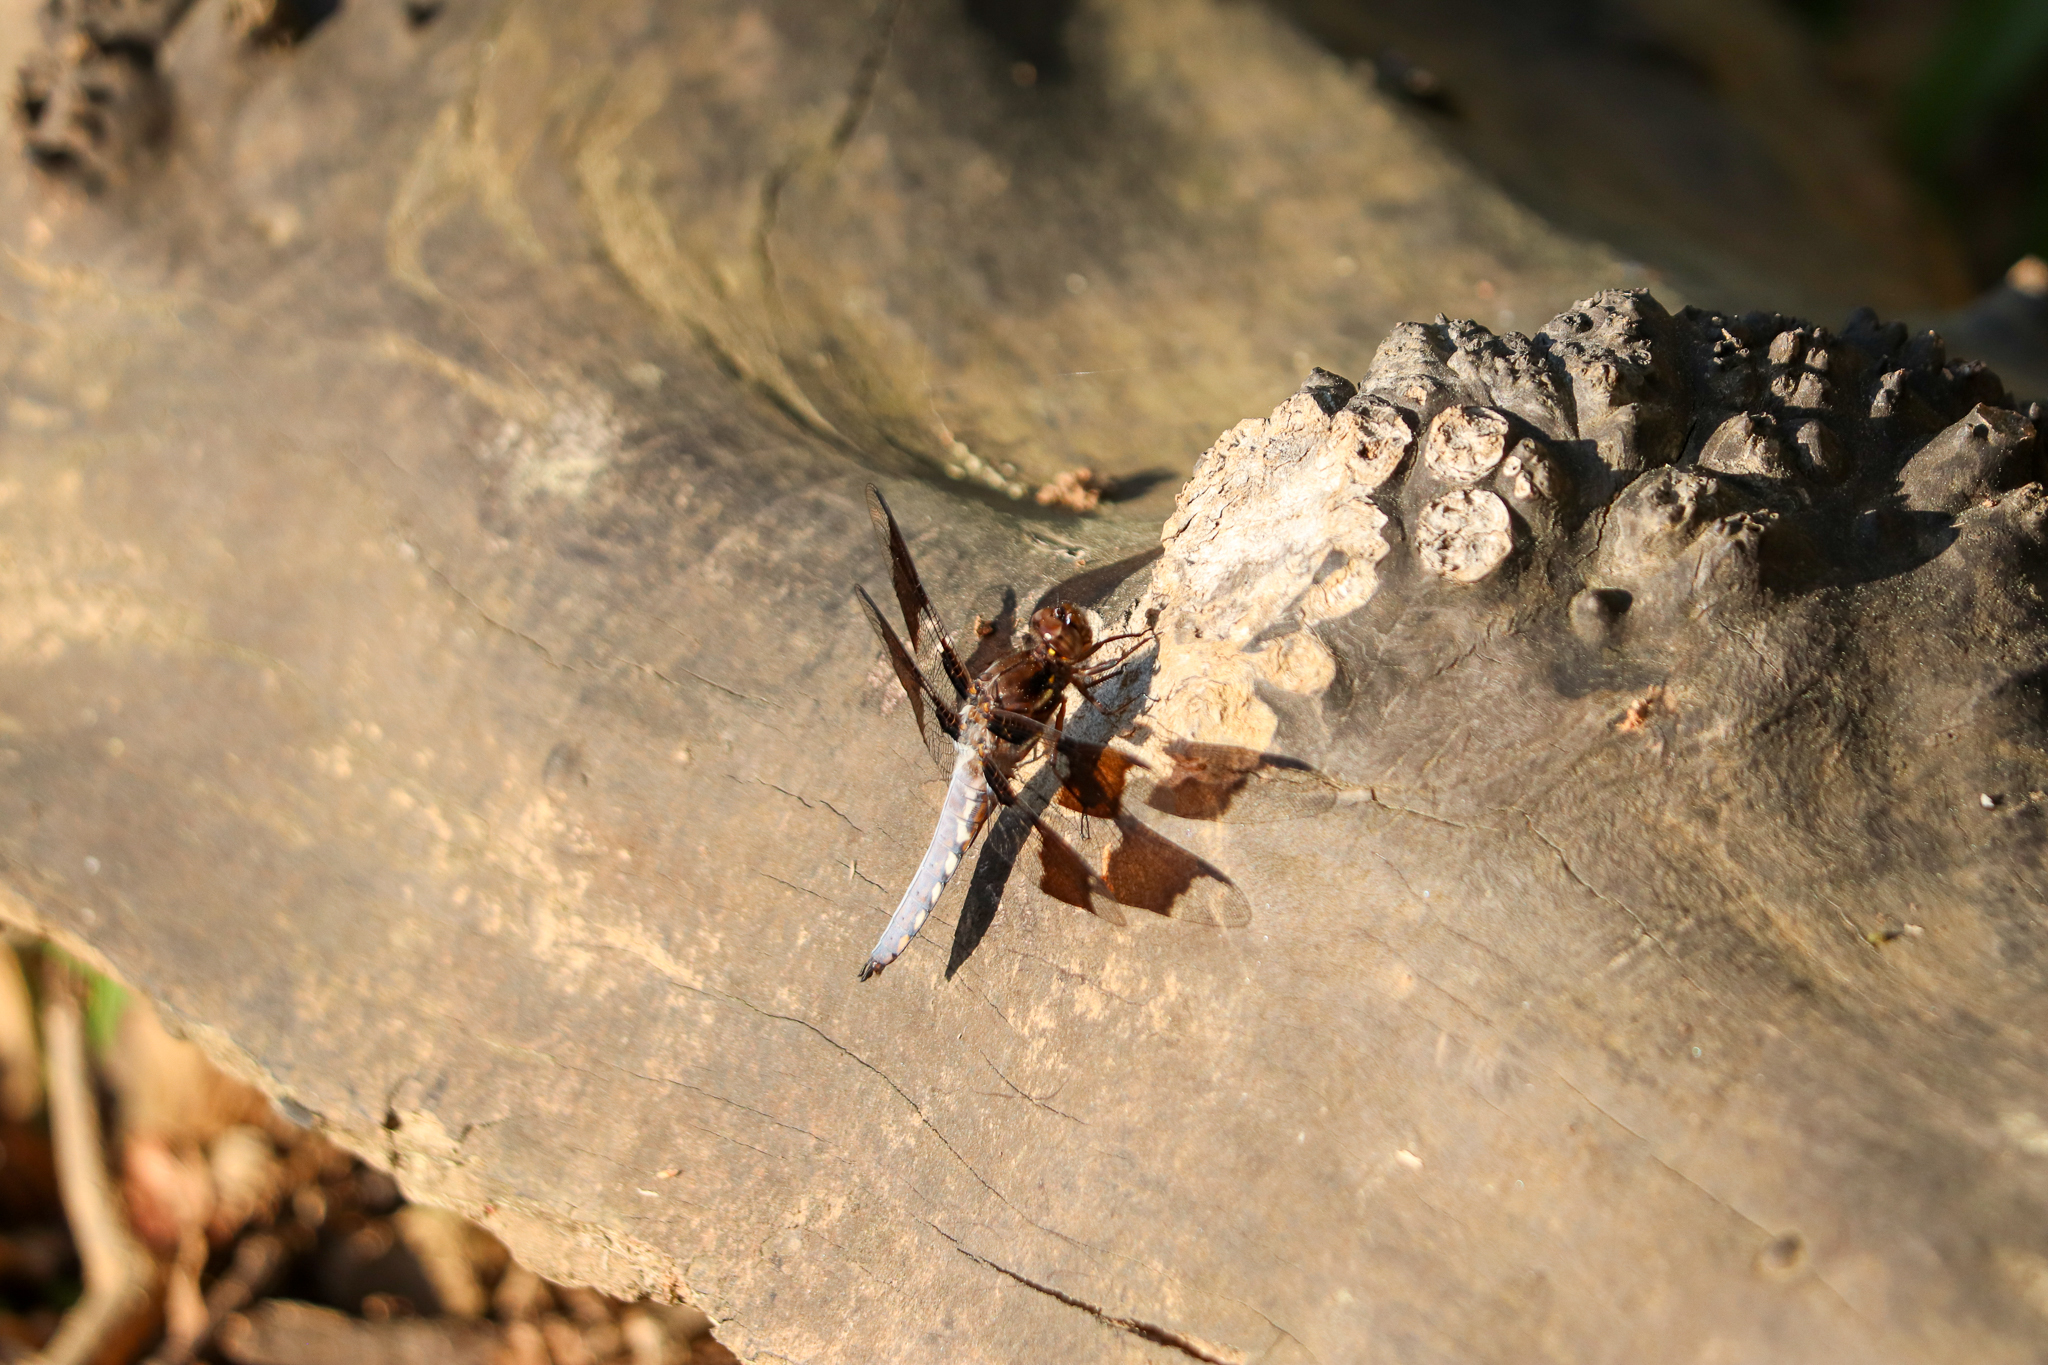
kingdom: Animalia
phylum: Arthropoda
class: Insecta
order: Odonata
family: Libellulidae
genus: Plathemis
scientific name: Plathemis lydia
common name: Common whitetail
